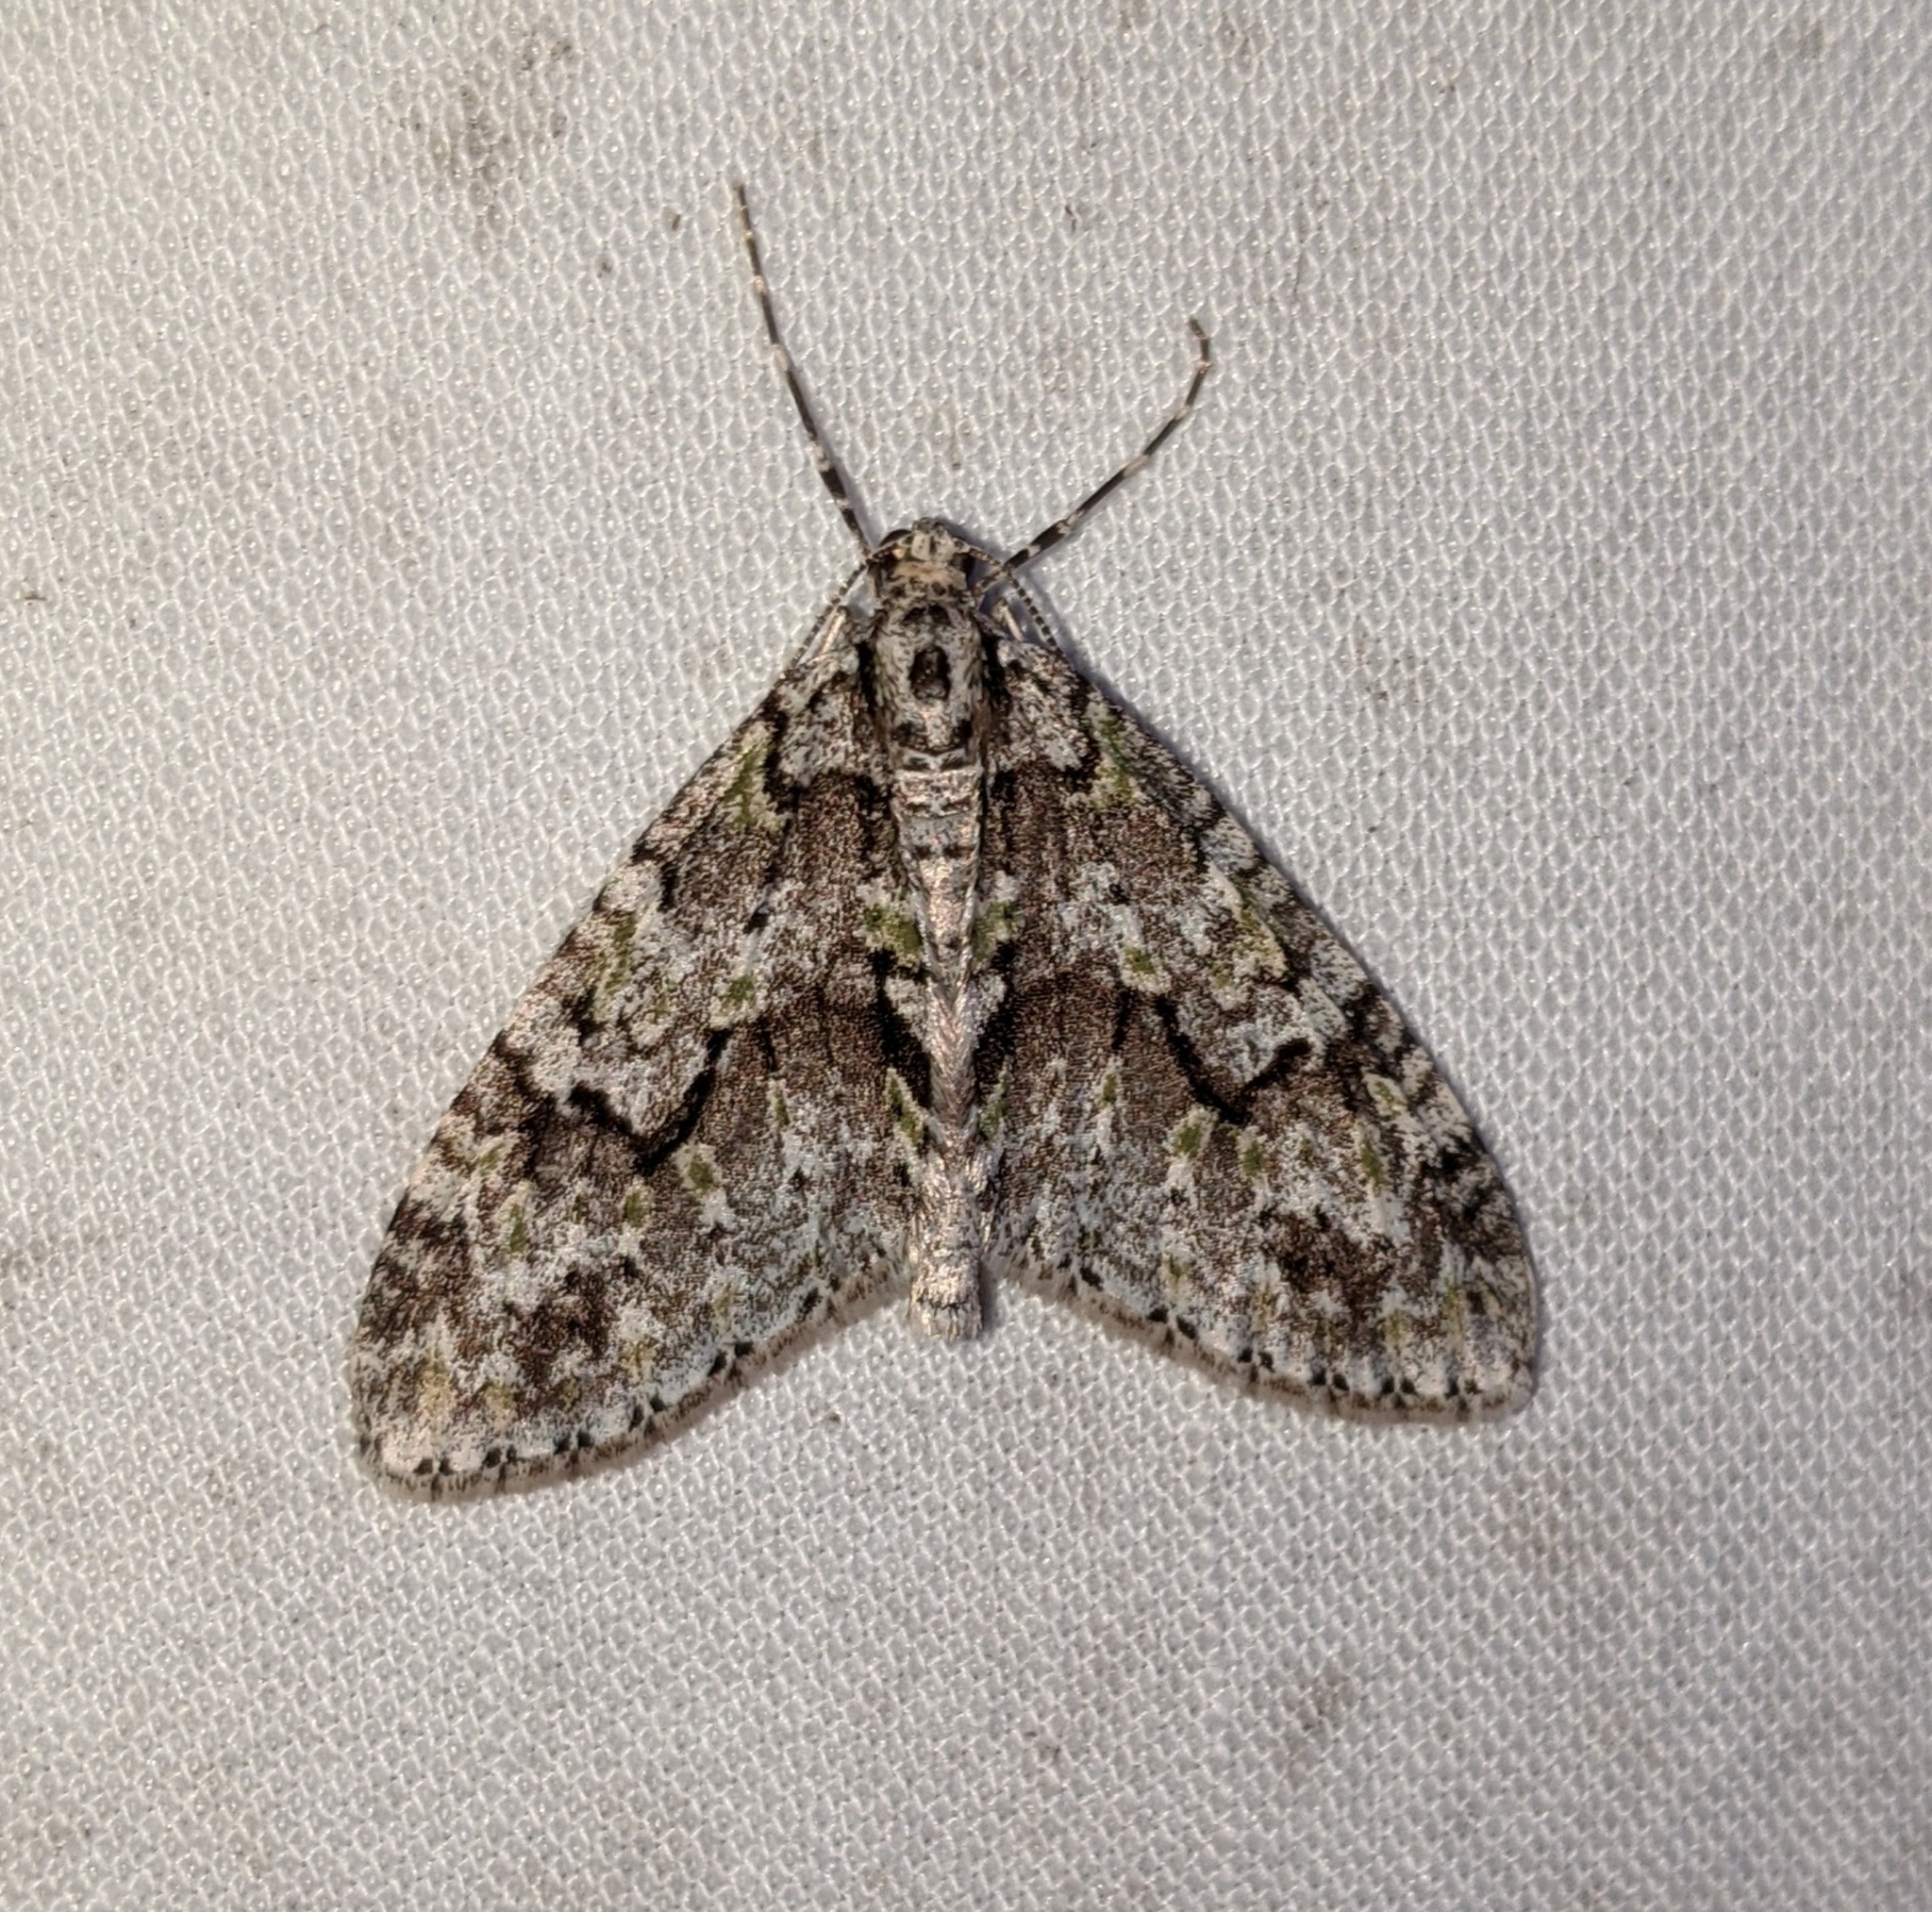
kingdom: Animalia
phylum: Arthropoda
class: Insecta
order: Lepidoptera
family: Geometridae
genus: Cladara
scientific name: Cladara limitaria
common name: Mottled gray carpet
